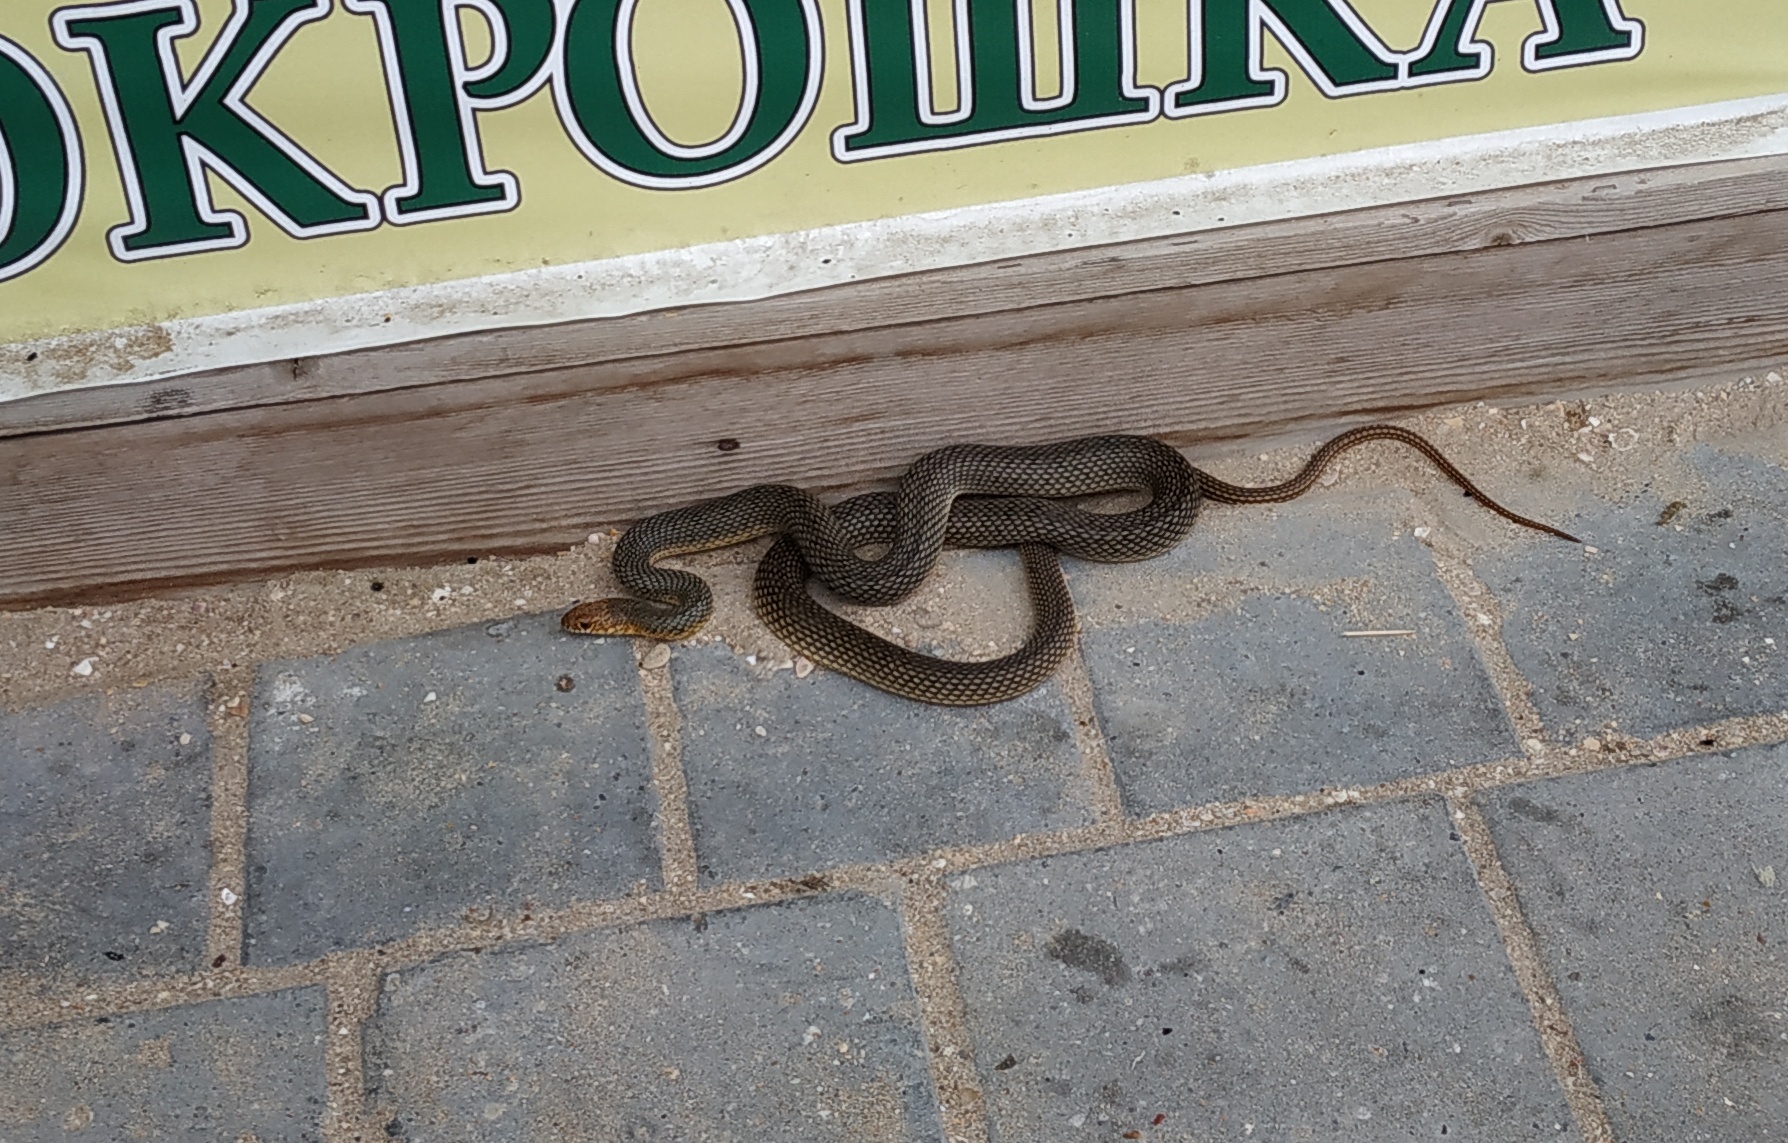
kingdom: Animalia
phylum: Chordata
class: Squamata
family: Colubridae
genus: Dolichophis
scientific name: Dolichophis caspius
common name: Large whip snake
